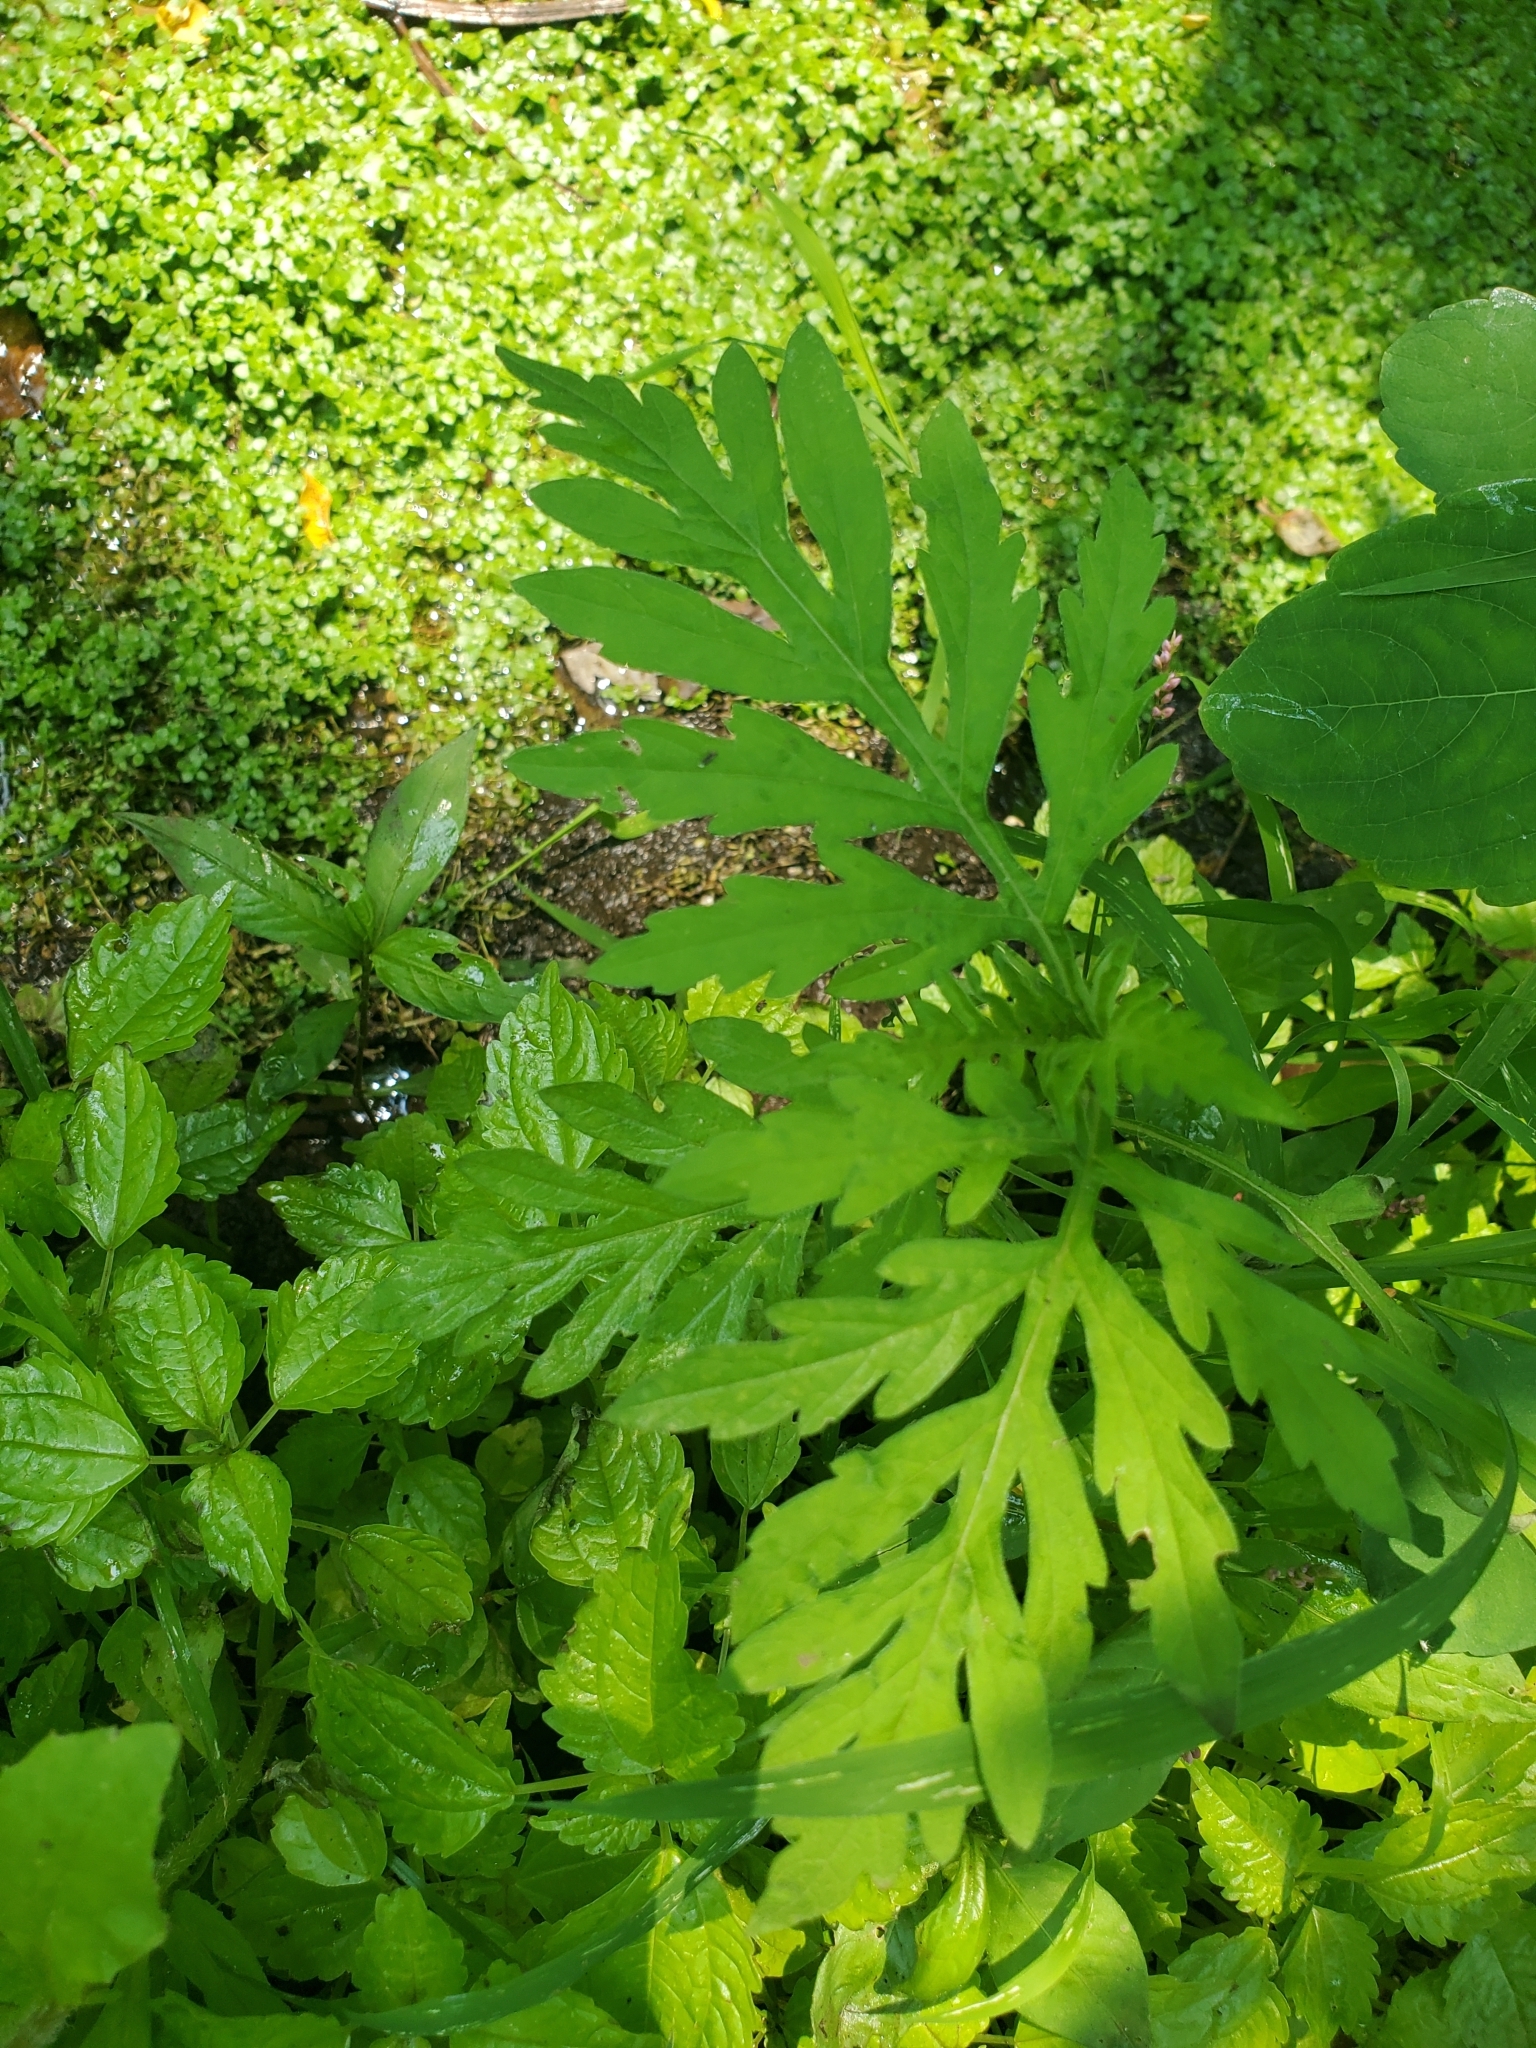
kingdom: Plantae
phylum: Tracheophyta
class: Magnoliopsida
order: Asterales
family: Asteraceae
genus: Ambrosia
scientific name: Ambrosia artemisiifolia
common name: Annual ragweed
